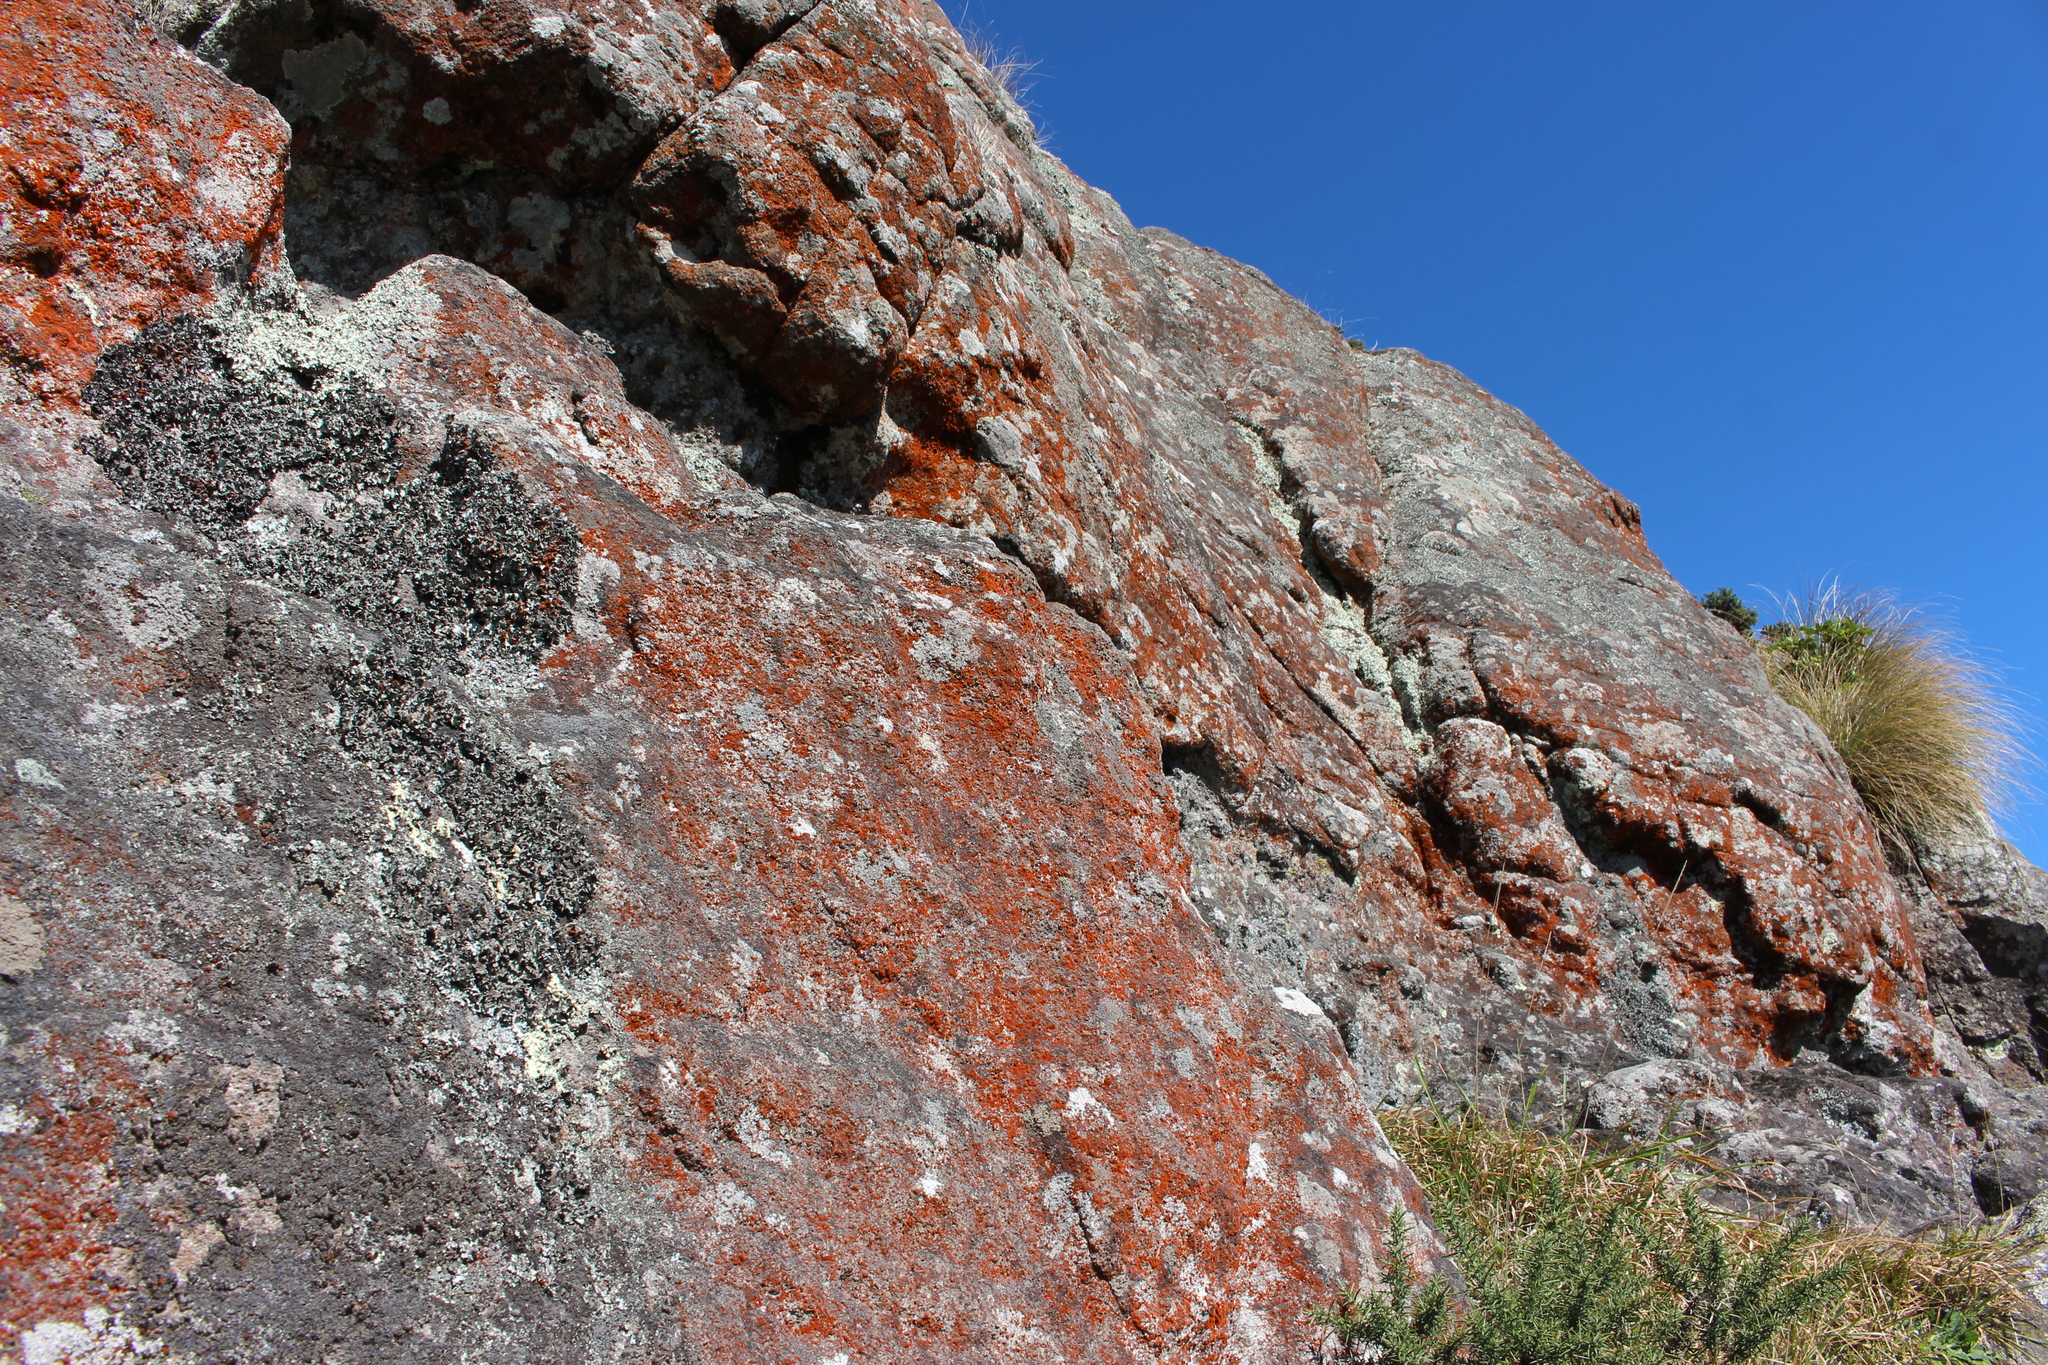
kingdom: Plantae
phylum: Chlorophyta
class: Ulvophyceae
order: Trentepohliales
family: Trentepohliaceae
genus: Trentepohlia
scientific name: Trentepohlia
